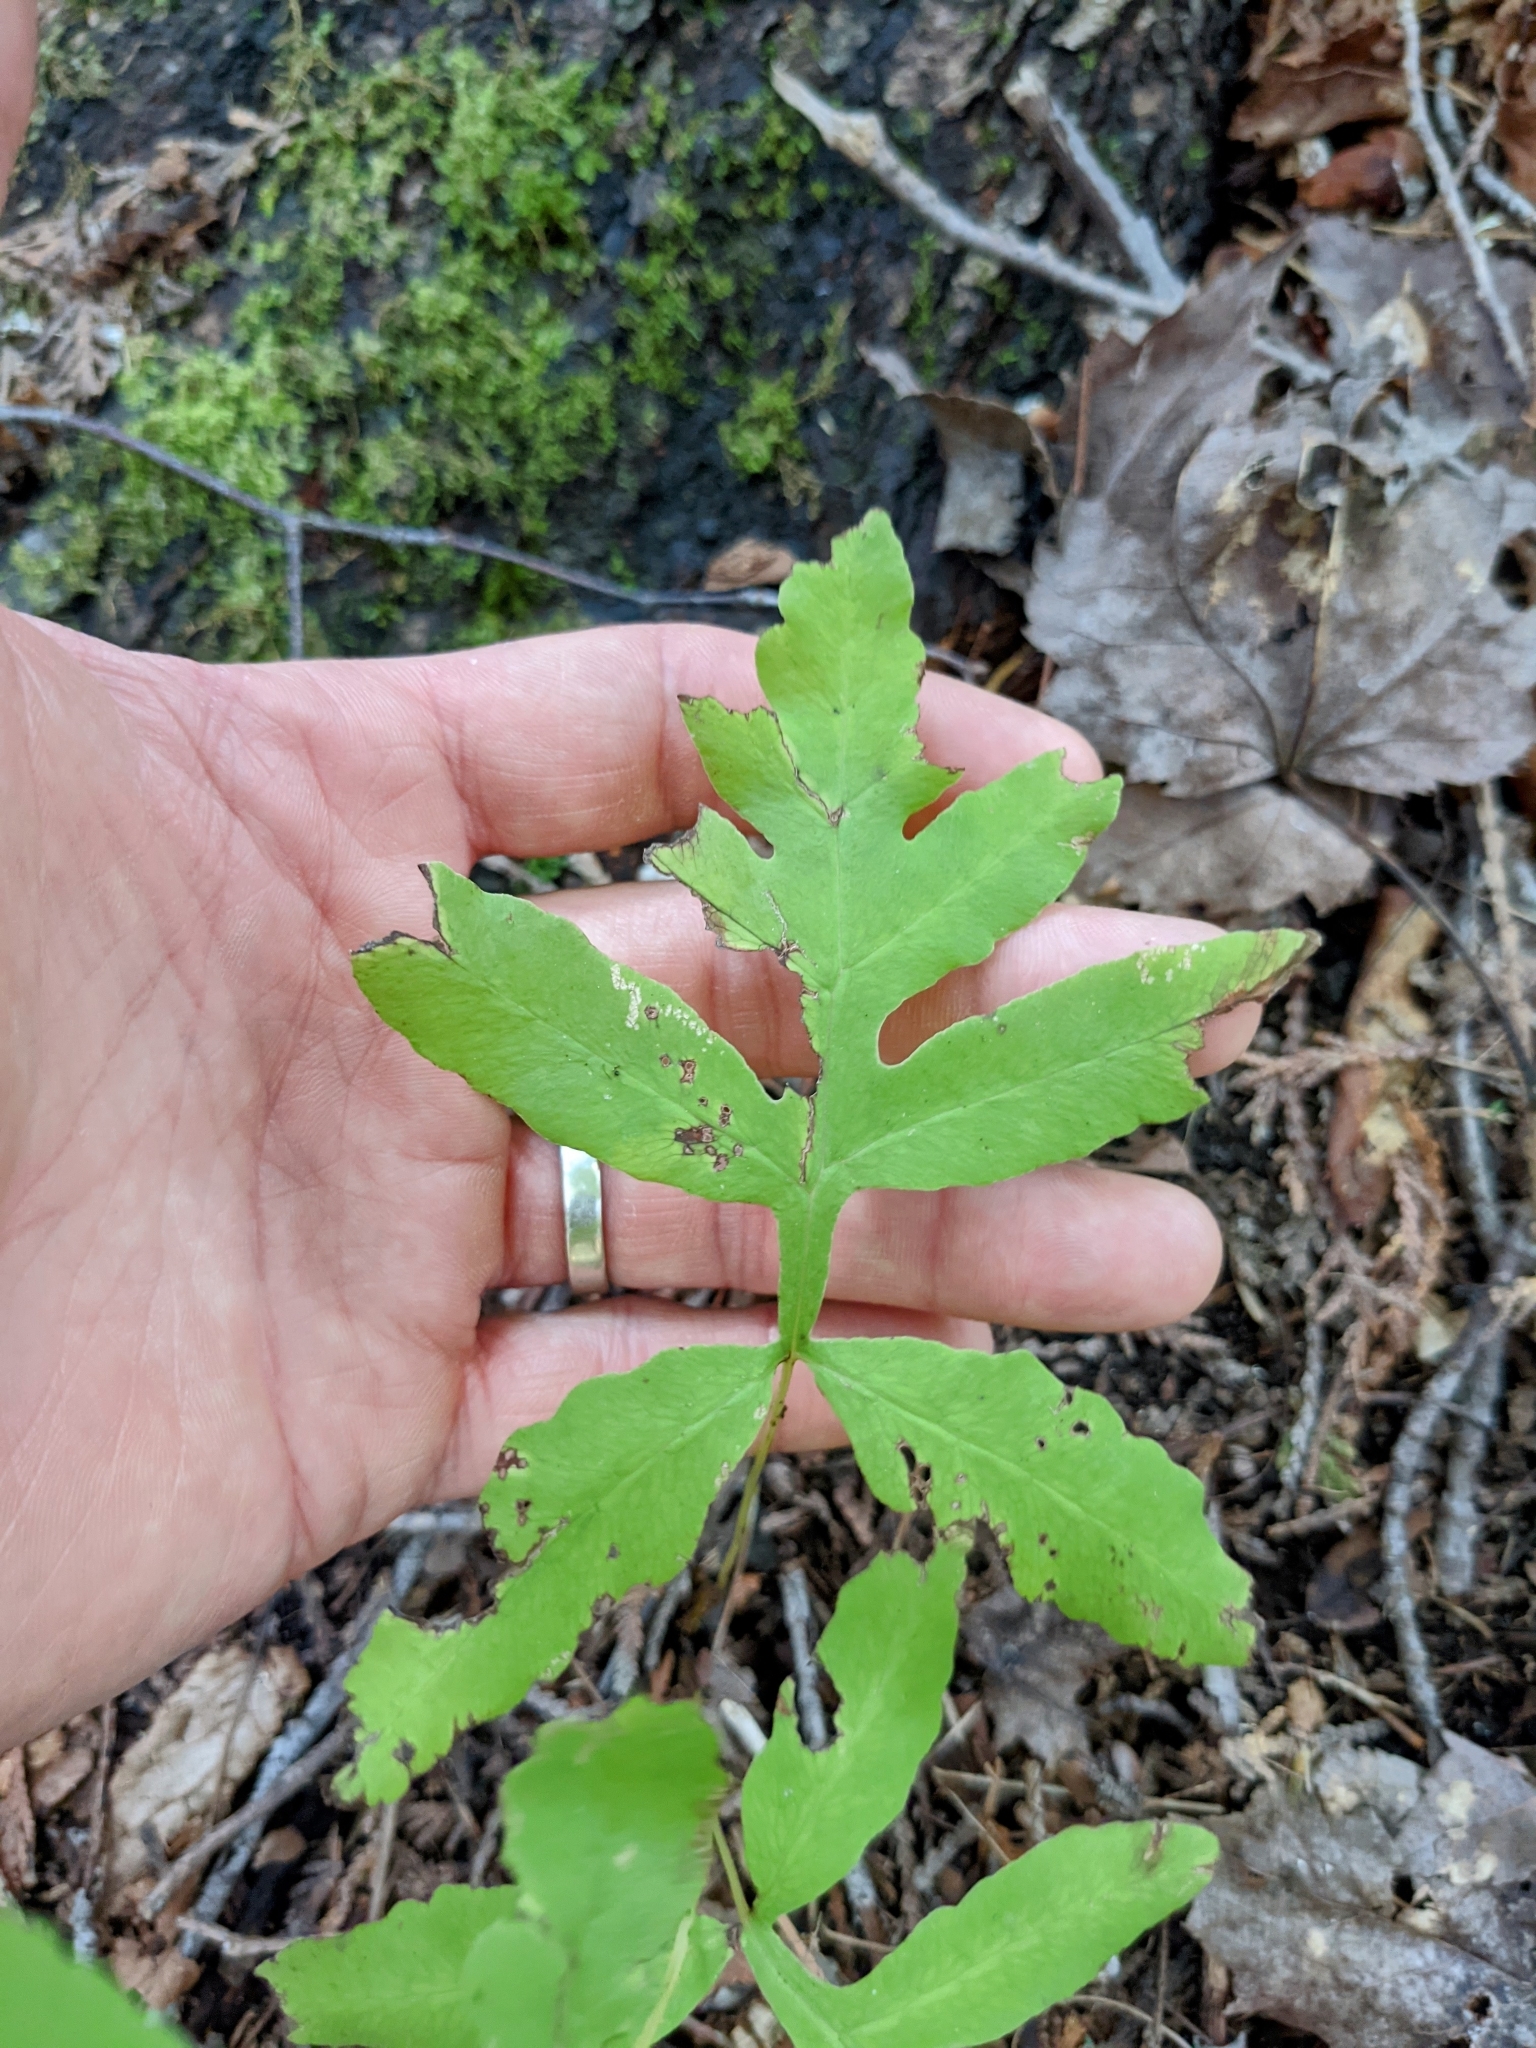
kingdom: Plantae
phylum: Tracheophyta
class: Polypodiopsida
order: Polypodiales
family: Onocleaceae
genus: Onoclea
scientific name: Onoclea sensibilis
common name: Sensitive fern
